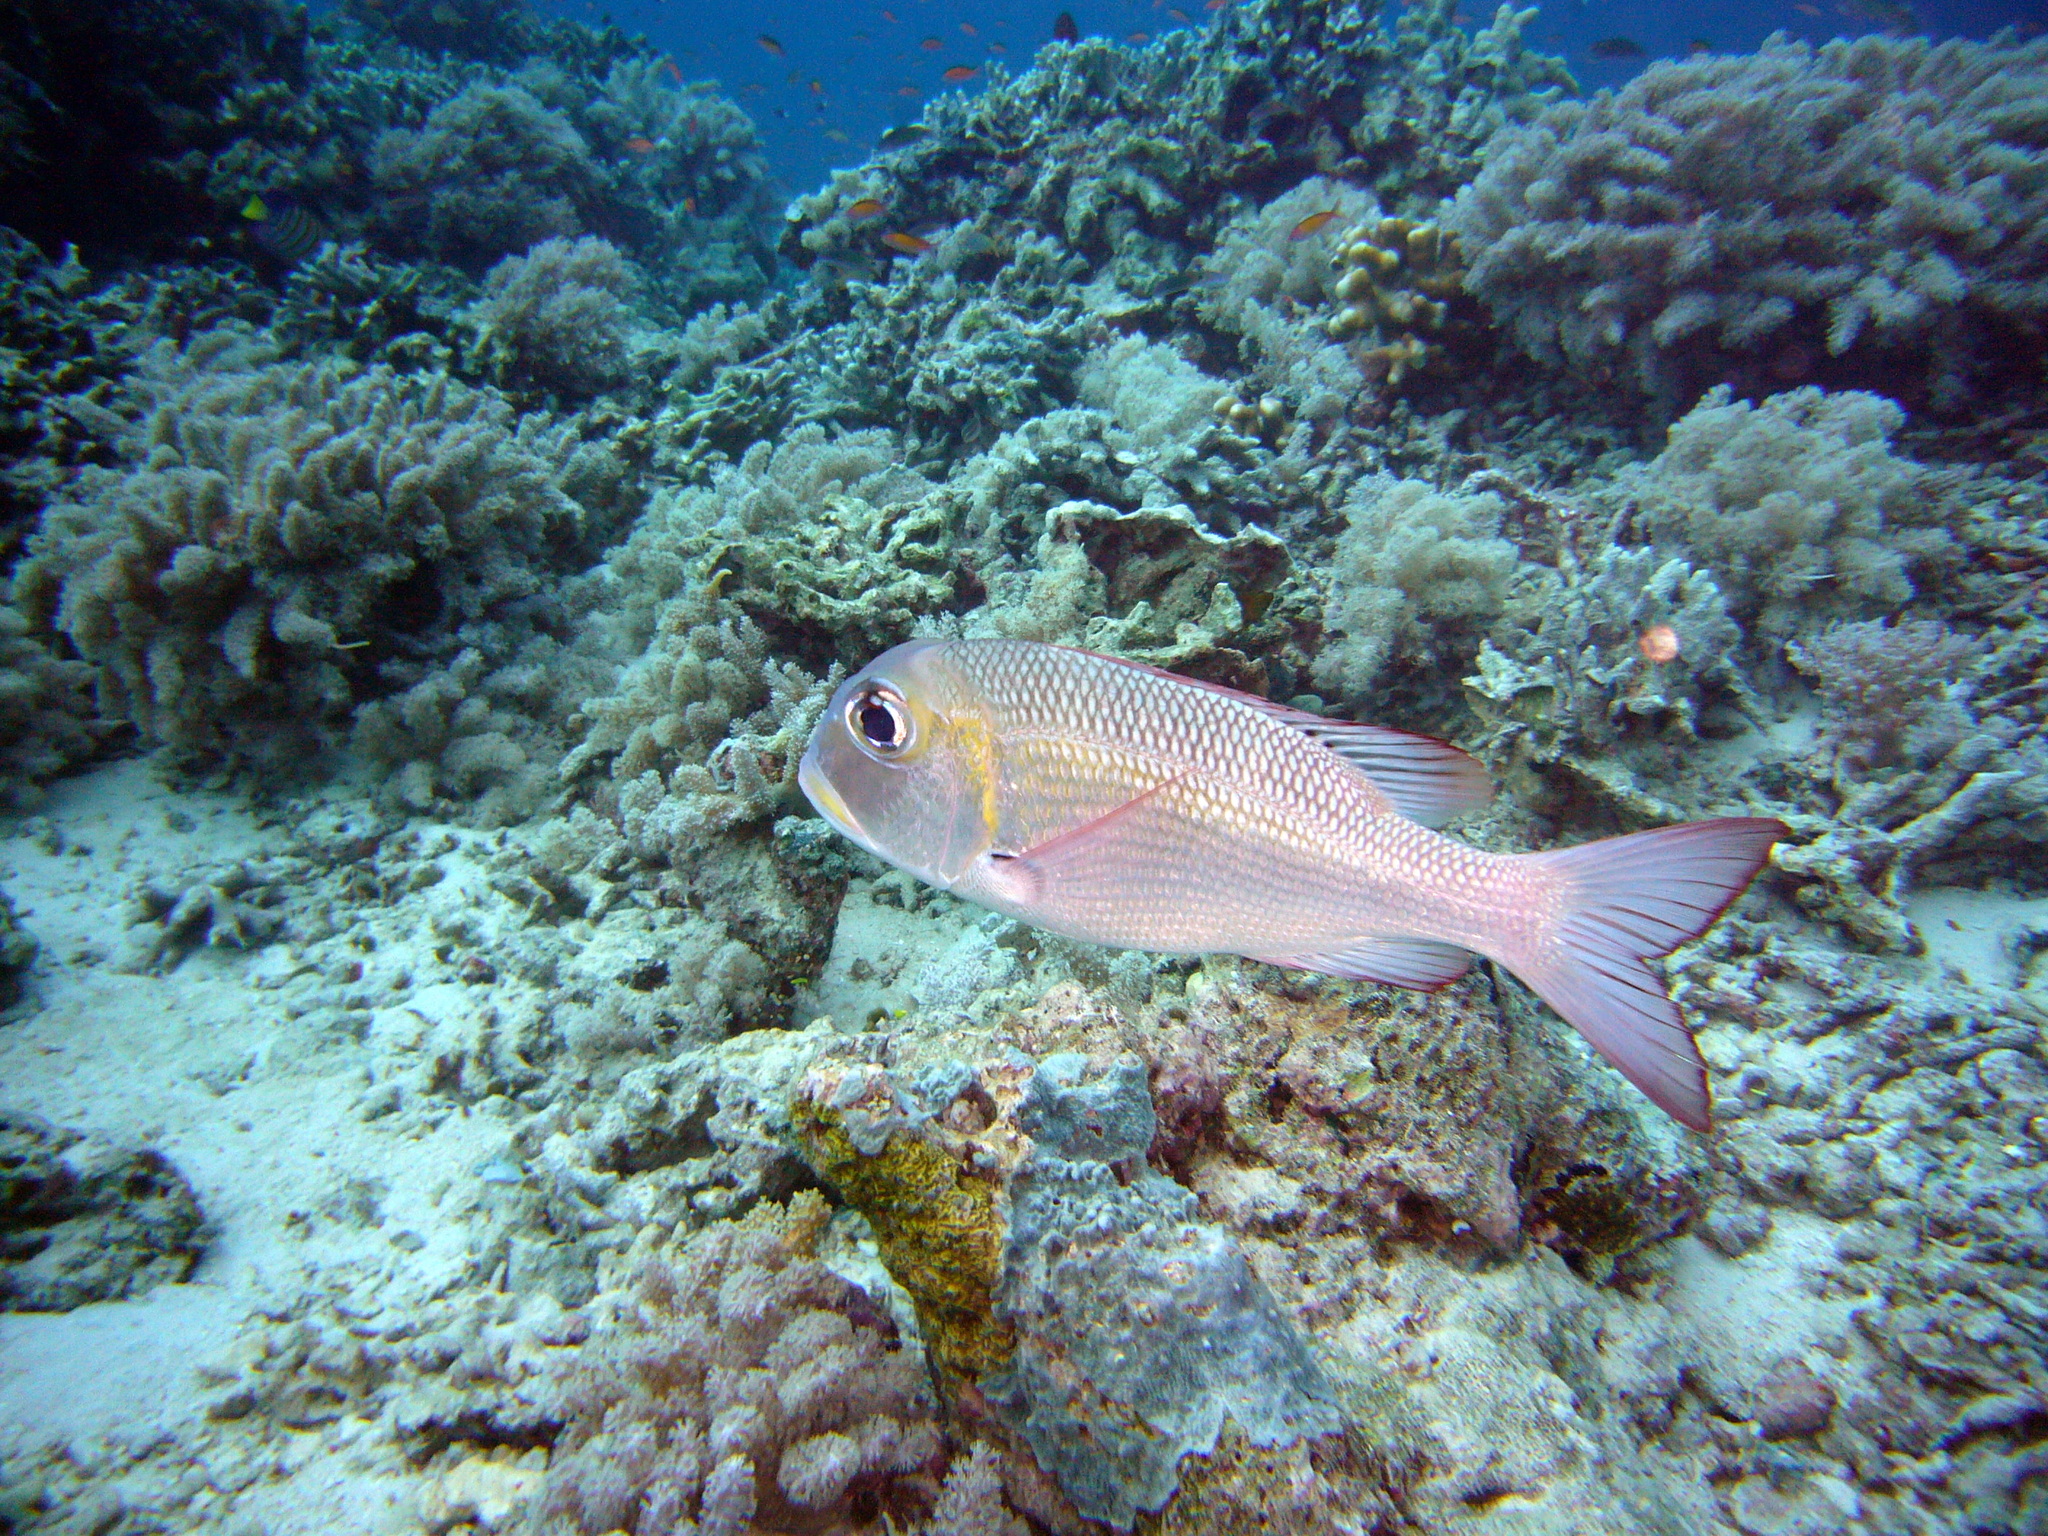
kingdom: Animalia
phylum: Chordata
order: Perciformes
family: Lethrinidae
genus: Monotaxis
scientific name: Monotaxis grandoculis
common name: Bigeye emperor
